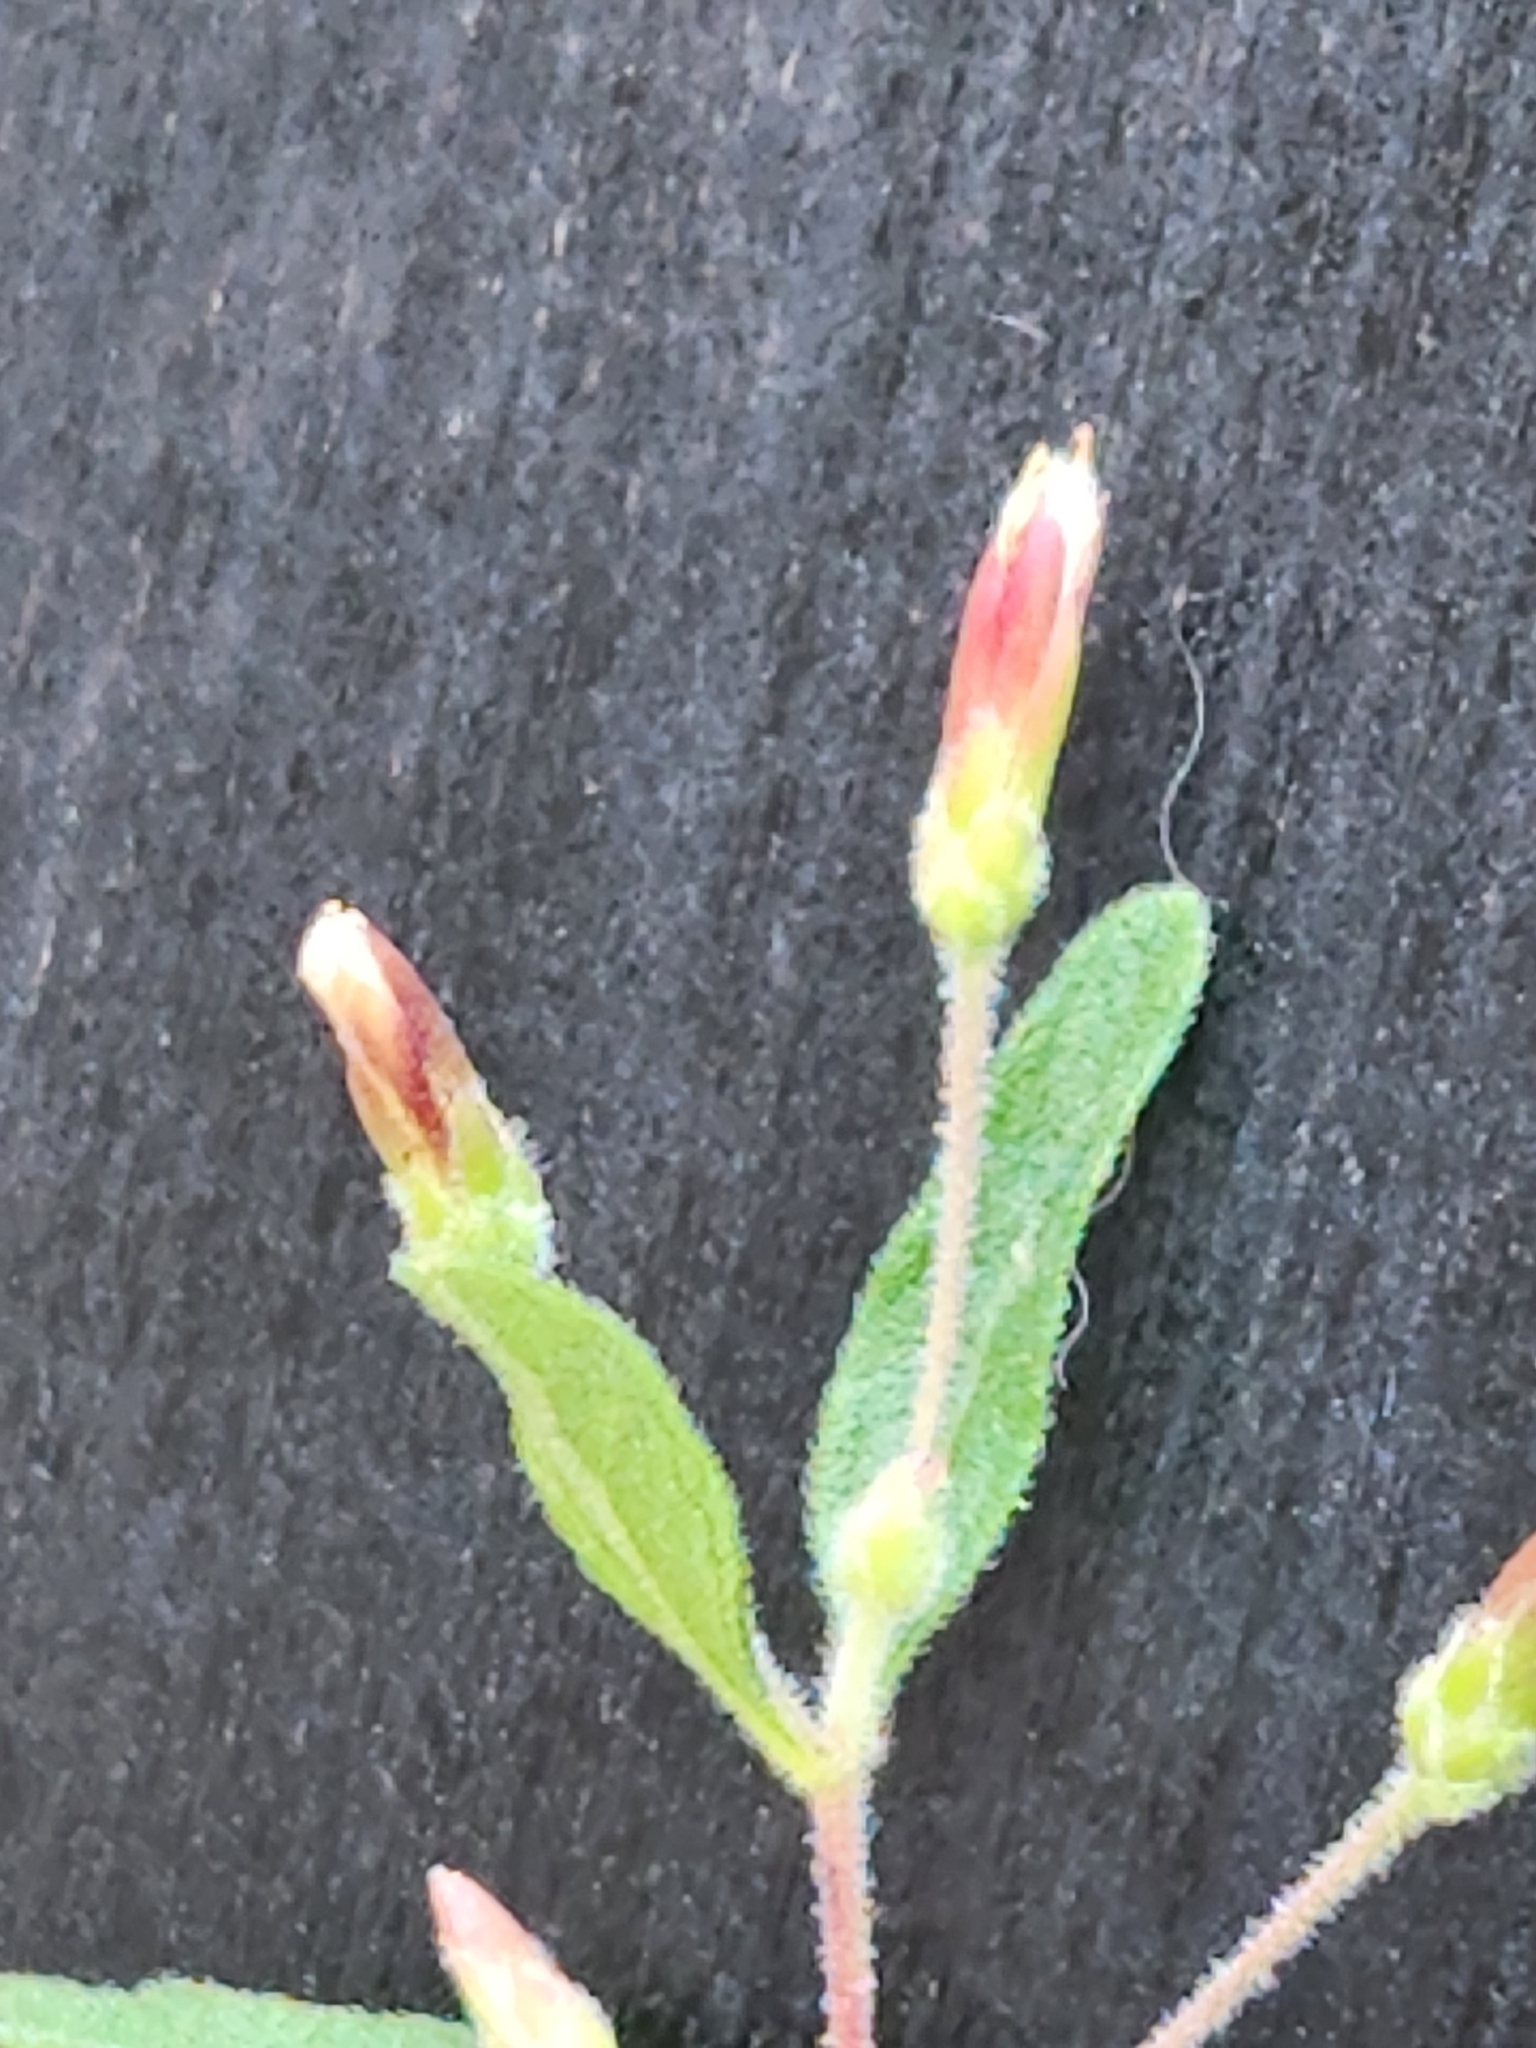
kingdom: Plantae
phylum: Tracheophyta
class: Magnoliopsida
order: Asterales
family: Asteraceae
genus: Brickellia
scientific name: Brickellia cylindracea
